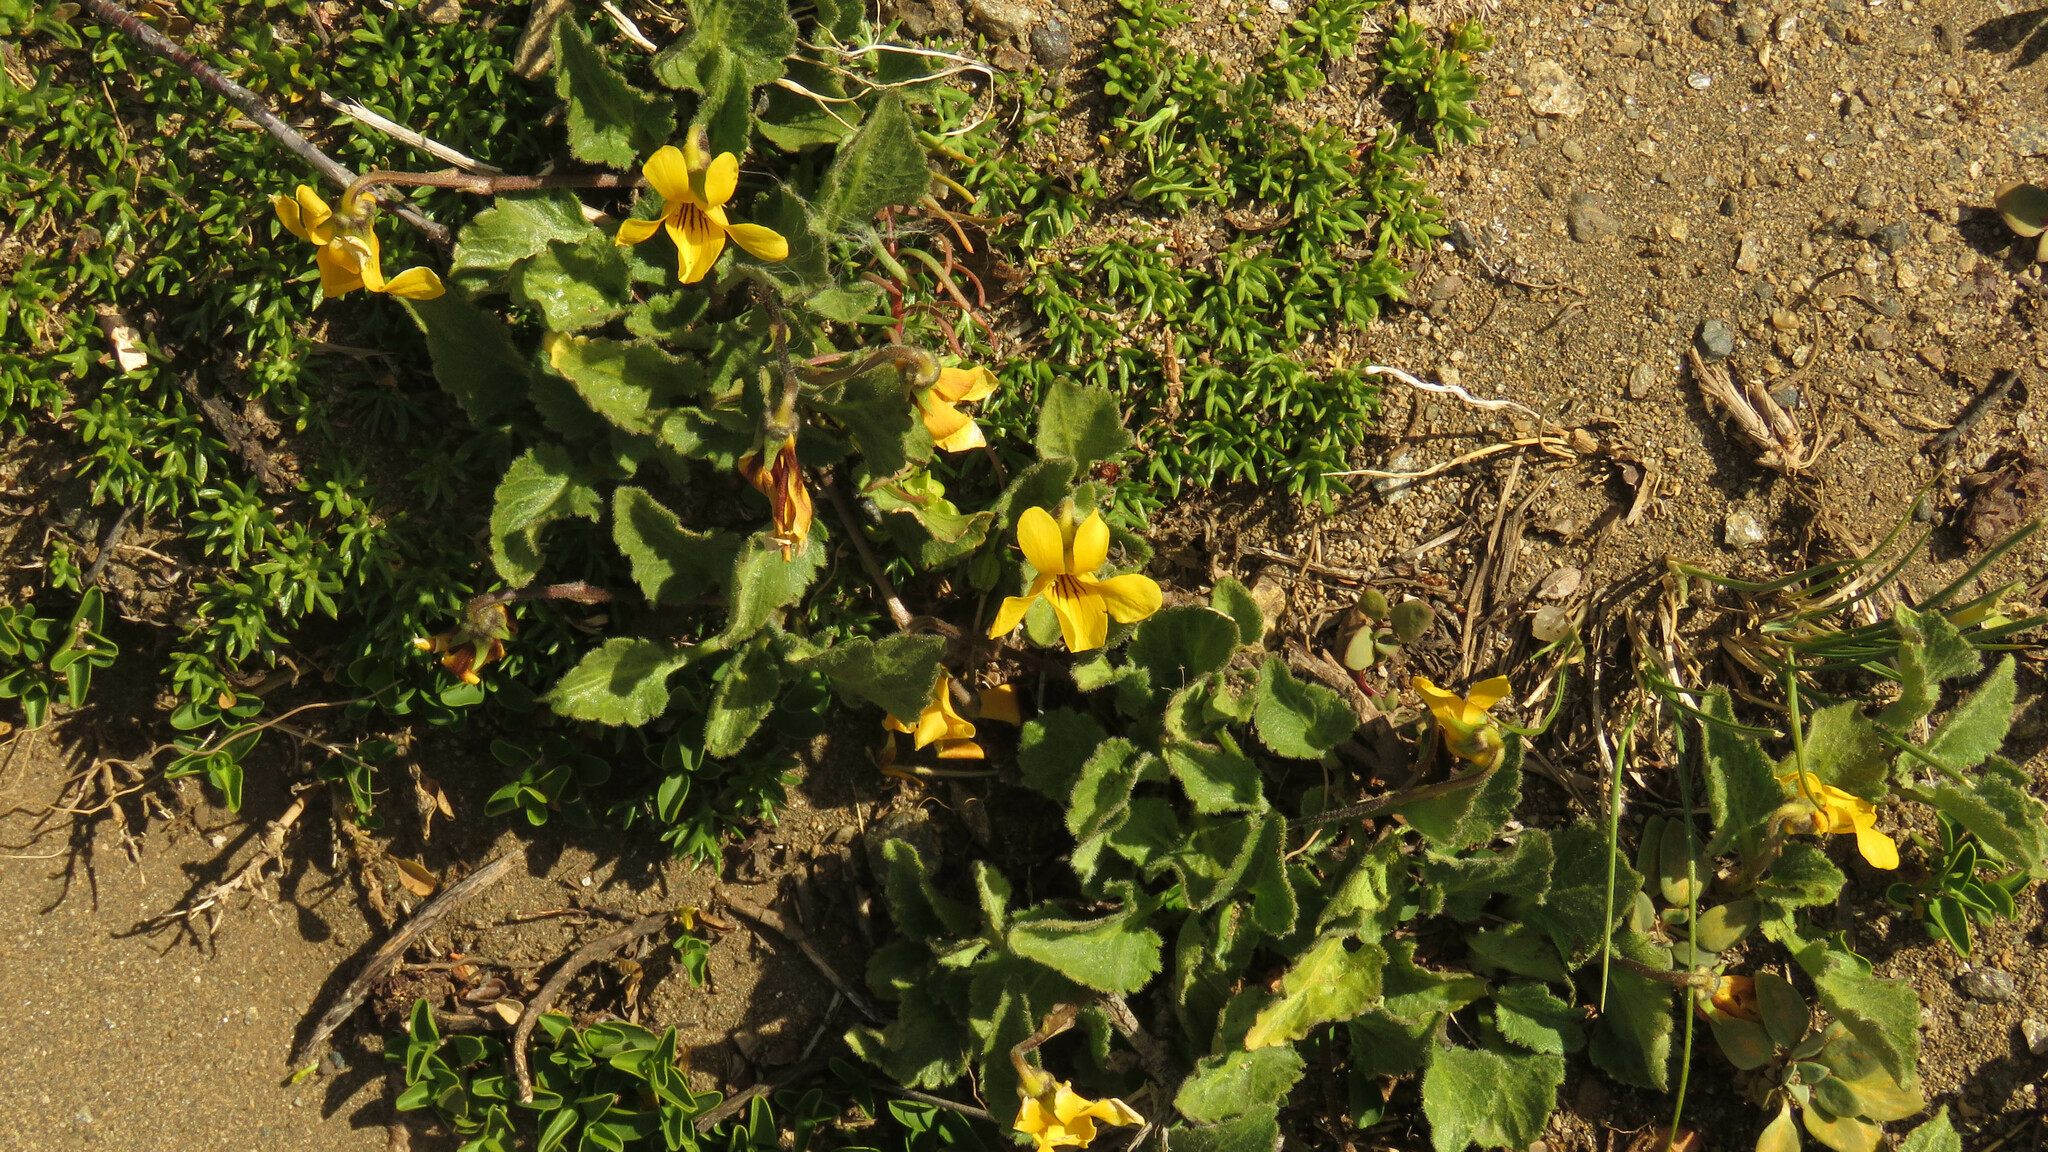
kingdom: Plantae
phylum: Tracheophyta
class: Magnoliopsida
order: Malpighiales
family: Violaceae
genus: Viola
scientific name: Viola maculata
